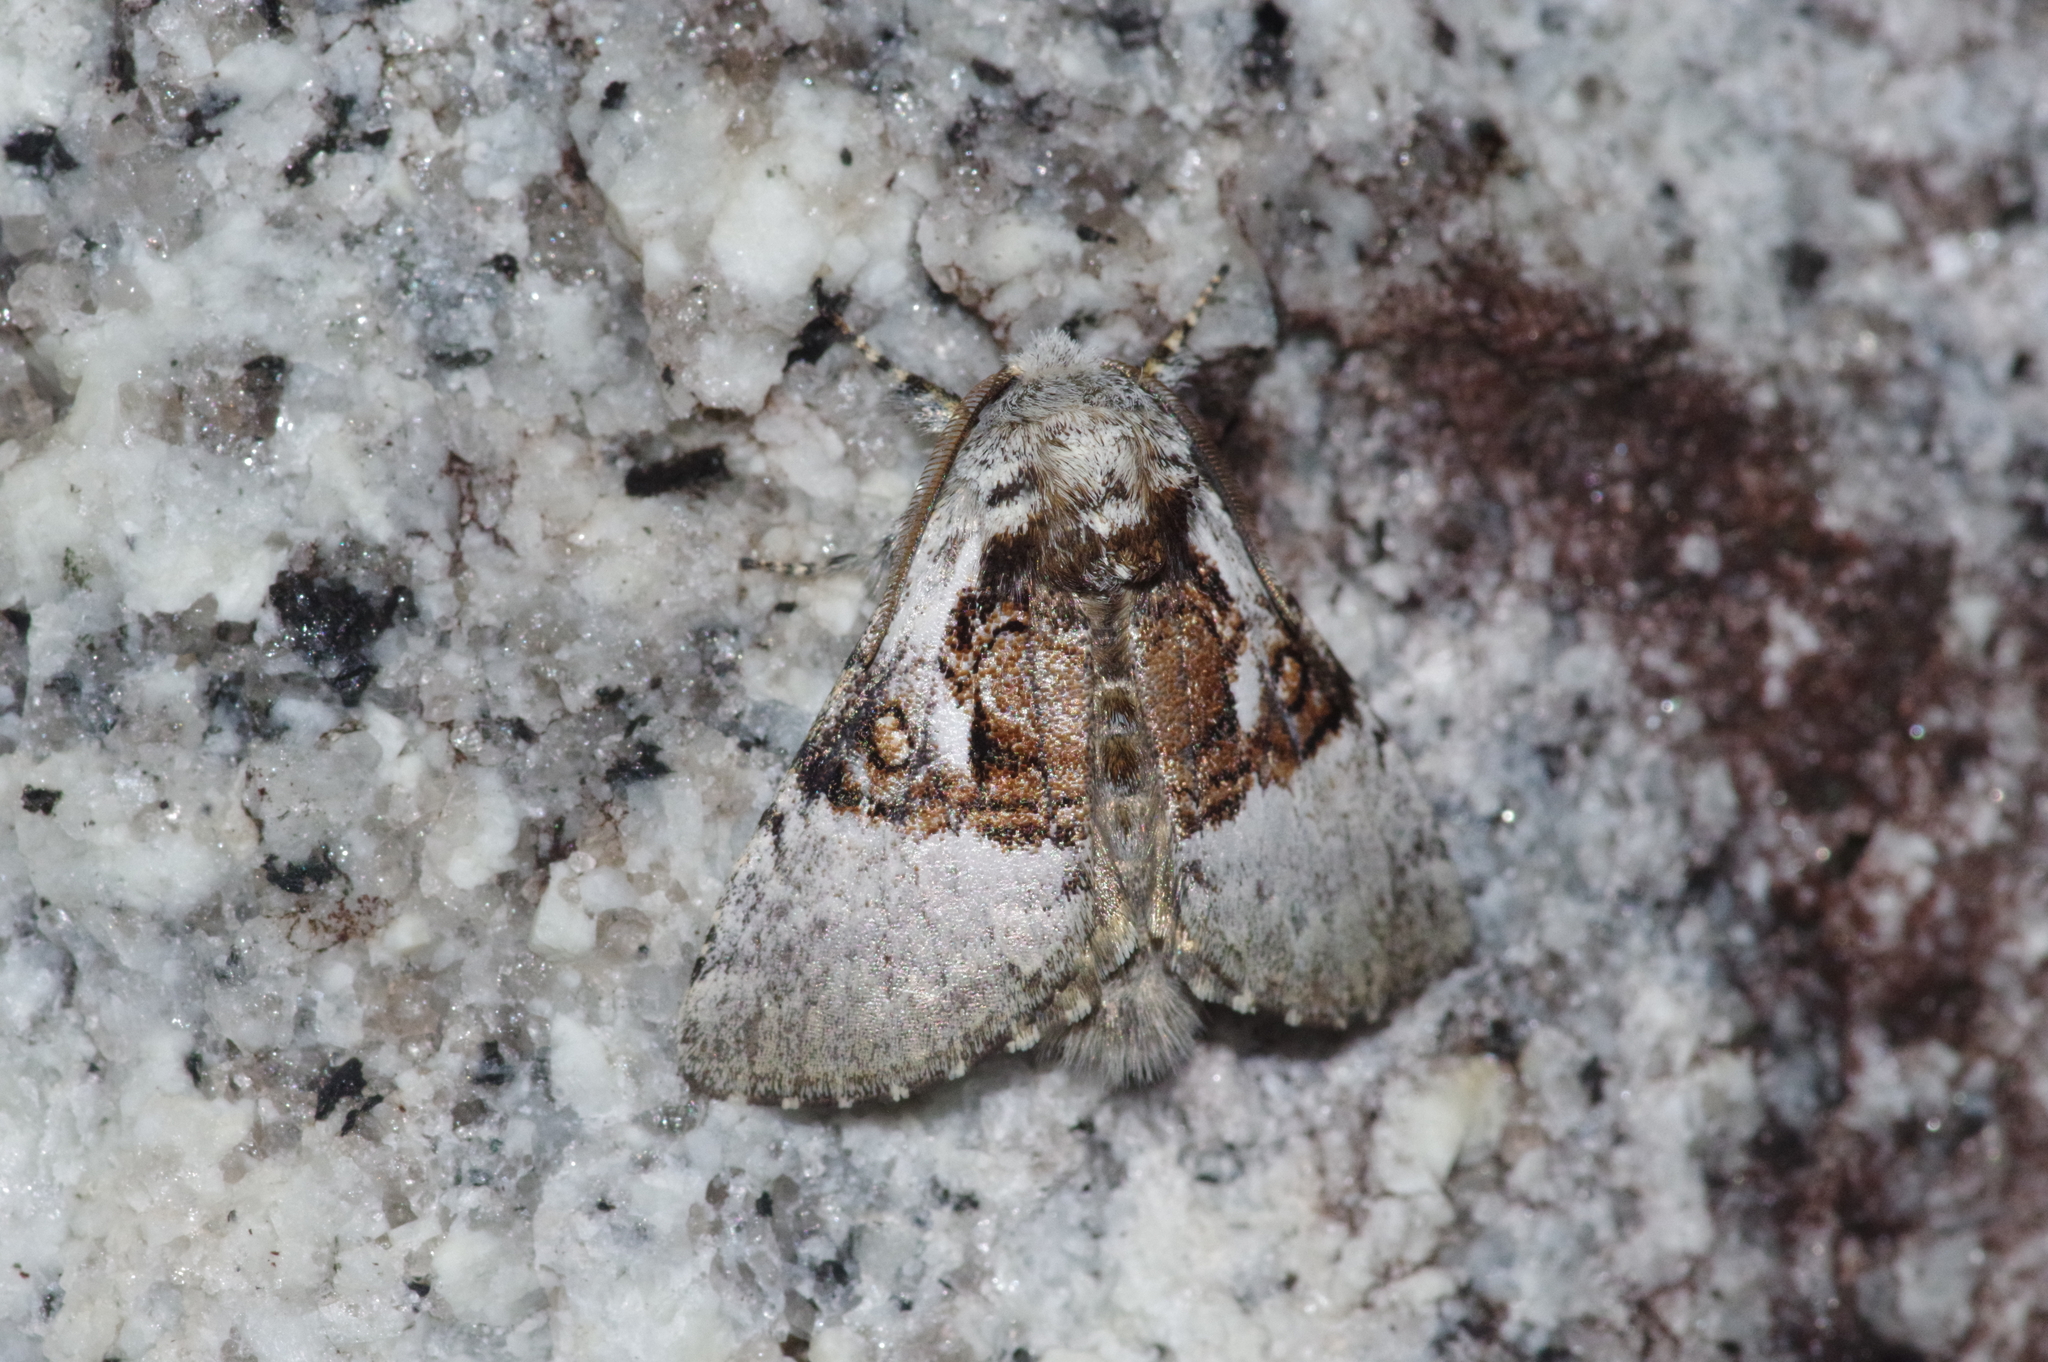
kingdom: Animalia
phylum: Arthropoda
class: Insecta
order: Lepidoptera
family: Noctuidae
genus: Colocasia
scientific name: Colocasia mus
